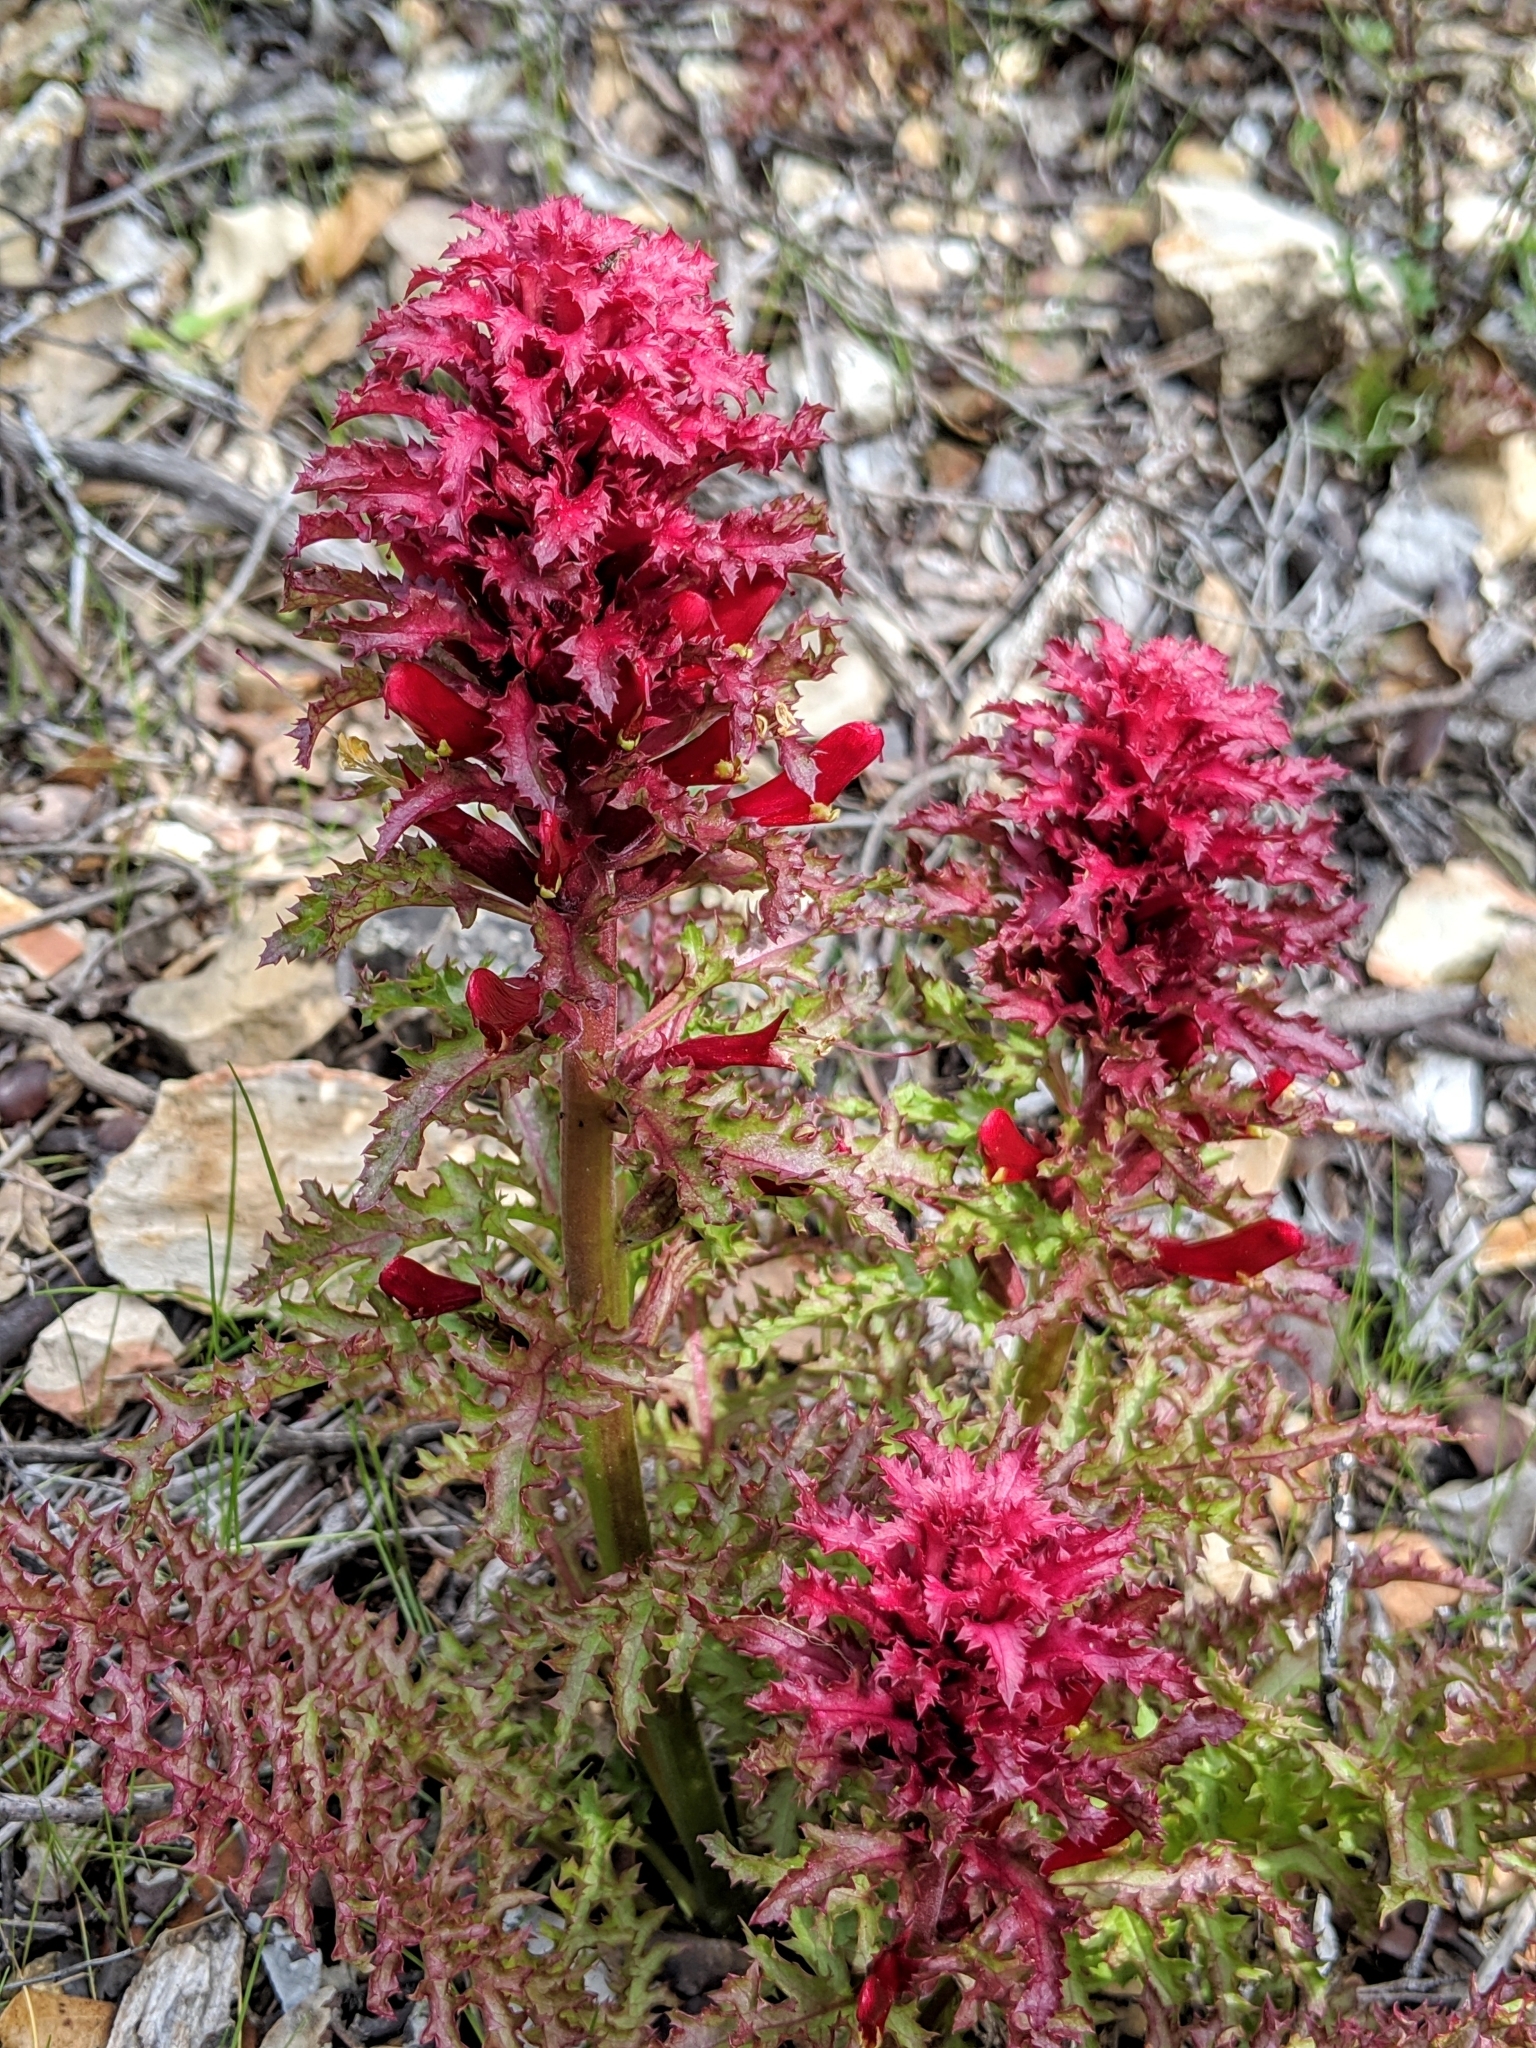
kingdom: Plantae
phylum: Tracheophyta
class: Magnoliopsida
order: Lamiales
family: Orobanchaceae
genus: Pedicularis
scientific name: Pedicularis densiflora
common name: Indian warrior
